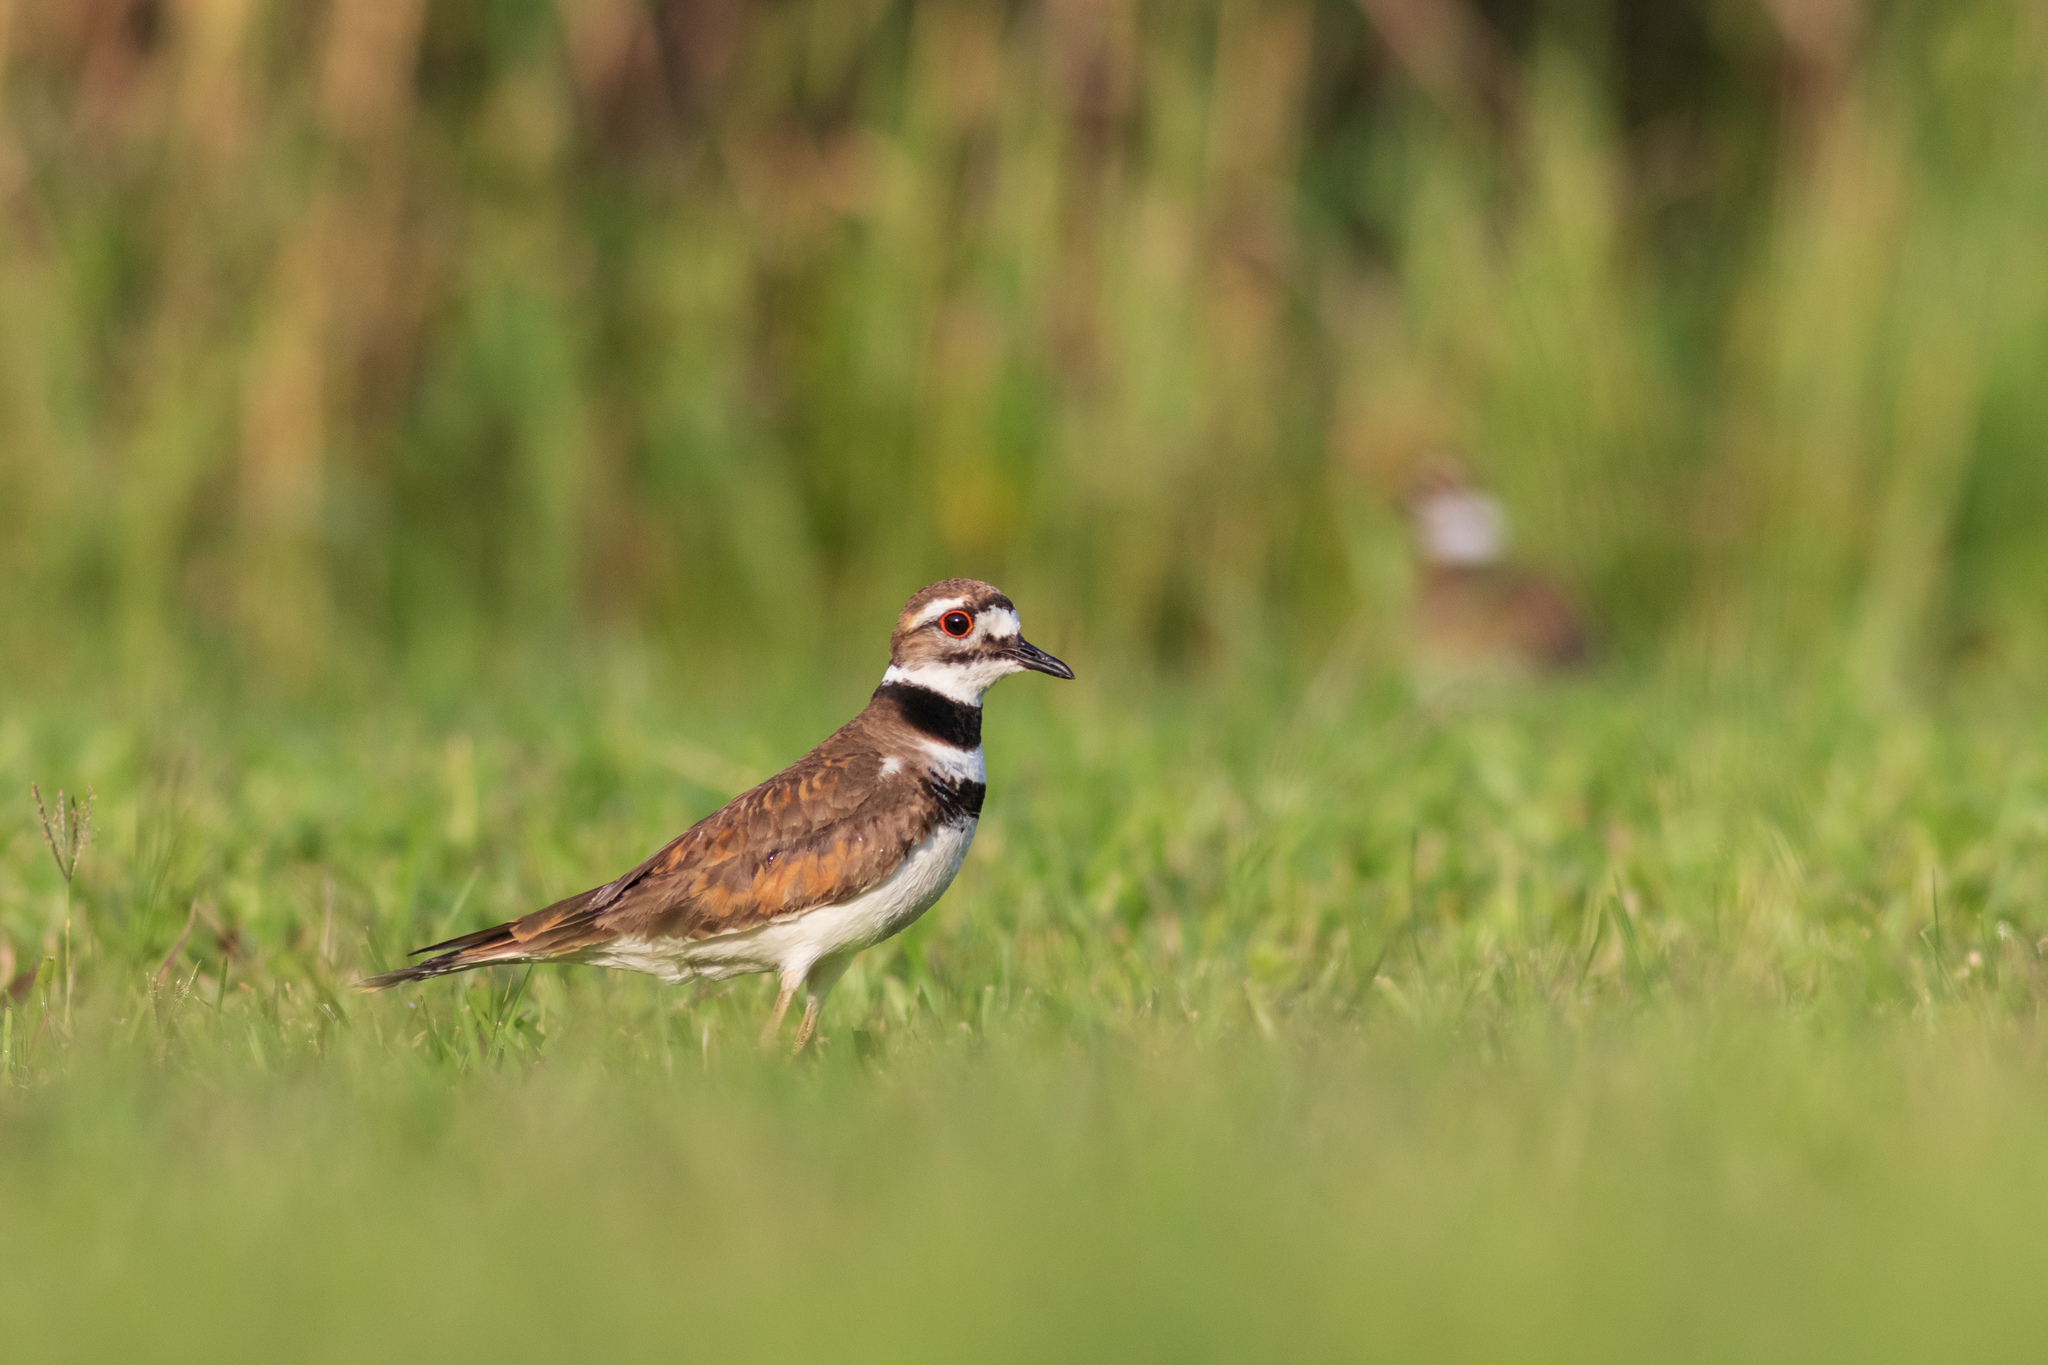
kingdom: Animalia
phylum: Chordata
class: Aves
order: Charadriiformes
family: Charadriidae
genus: Charadrius
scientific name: Charadrius vociferus
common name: Killdeer
